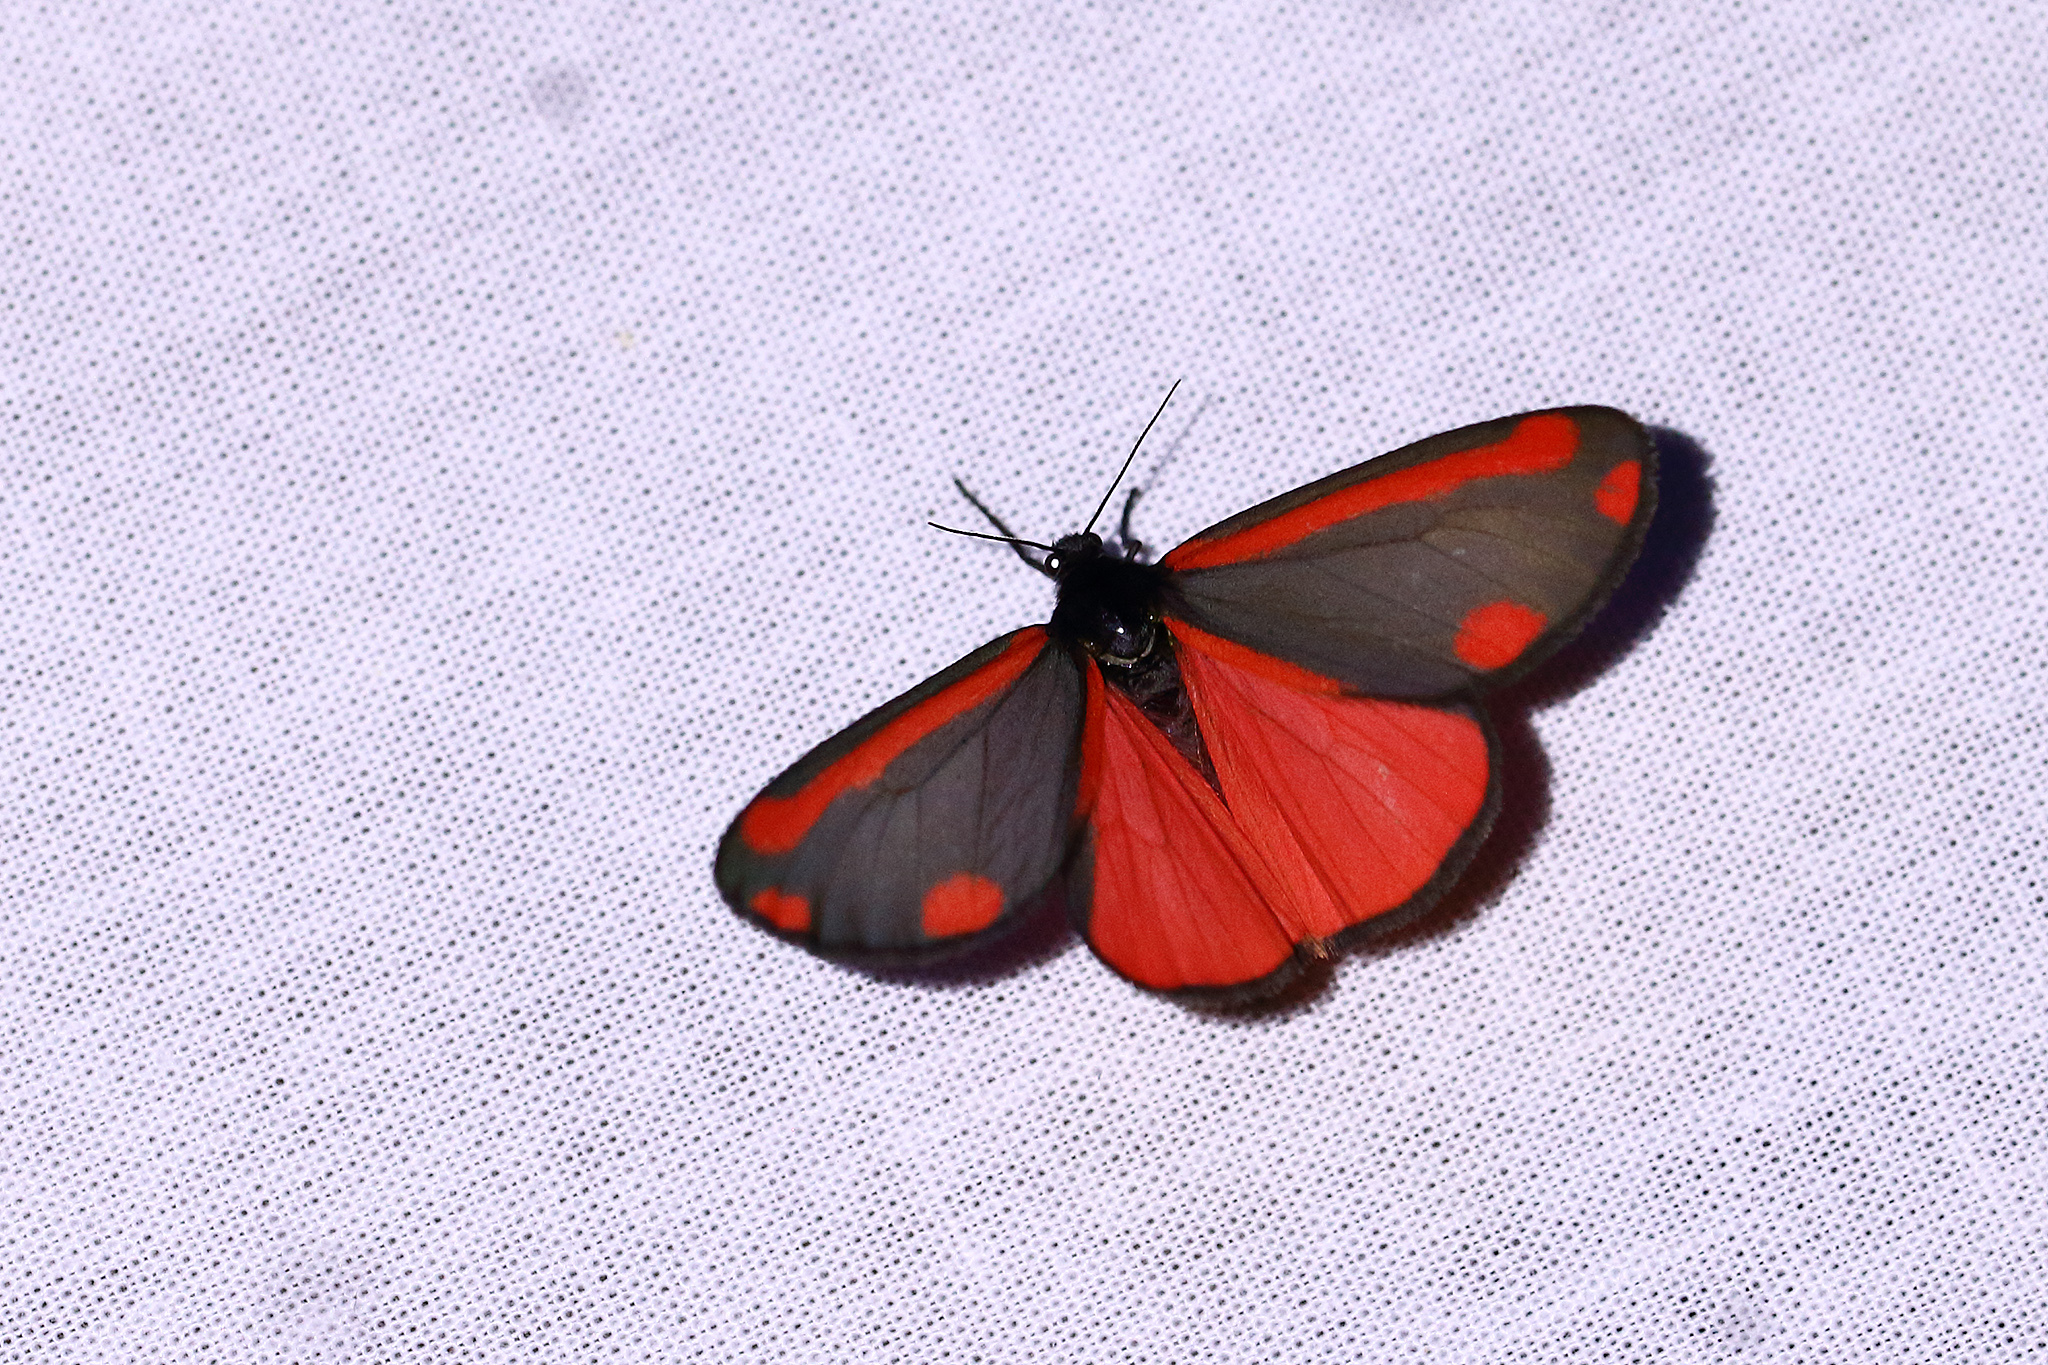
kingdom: Animalia
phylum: Arthropoda
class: Insecta
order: Lepidoptera
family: Erebidae
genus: Tyria
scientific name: Tyria jacobaeae
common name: Cinnabar
